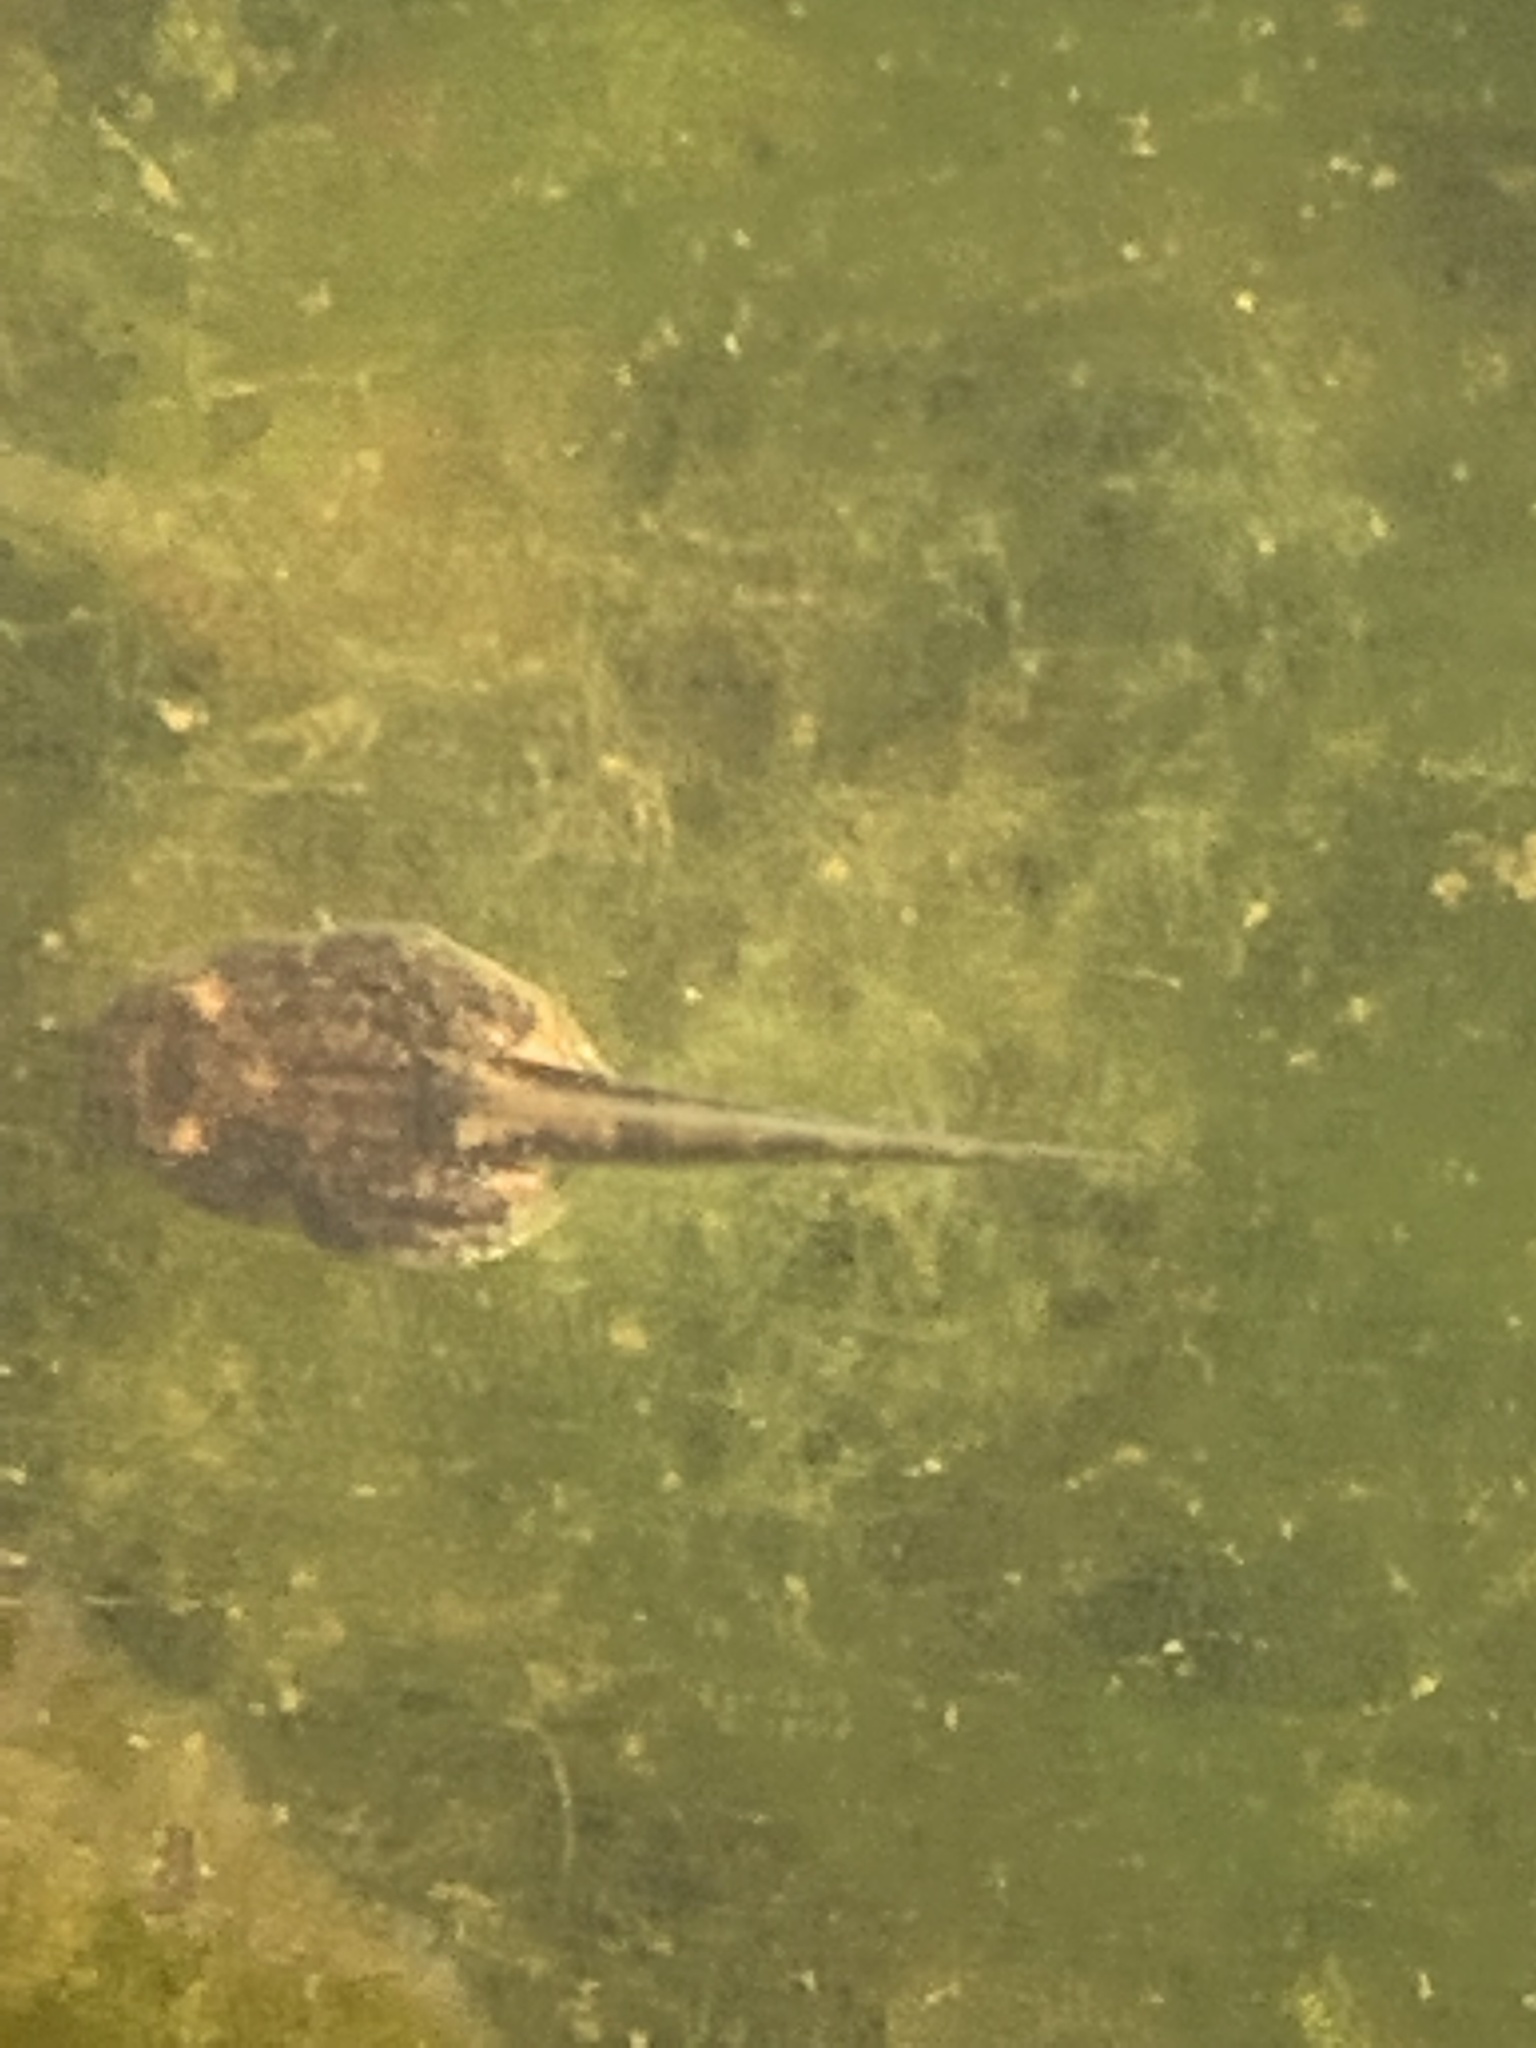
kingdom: Animalia
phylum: Chordata
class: Amphibia
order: Anura
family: Alytidae
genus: Alytes
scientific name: Alytes obstetricans
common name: Midwife toad
